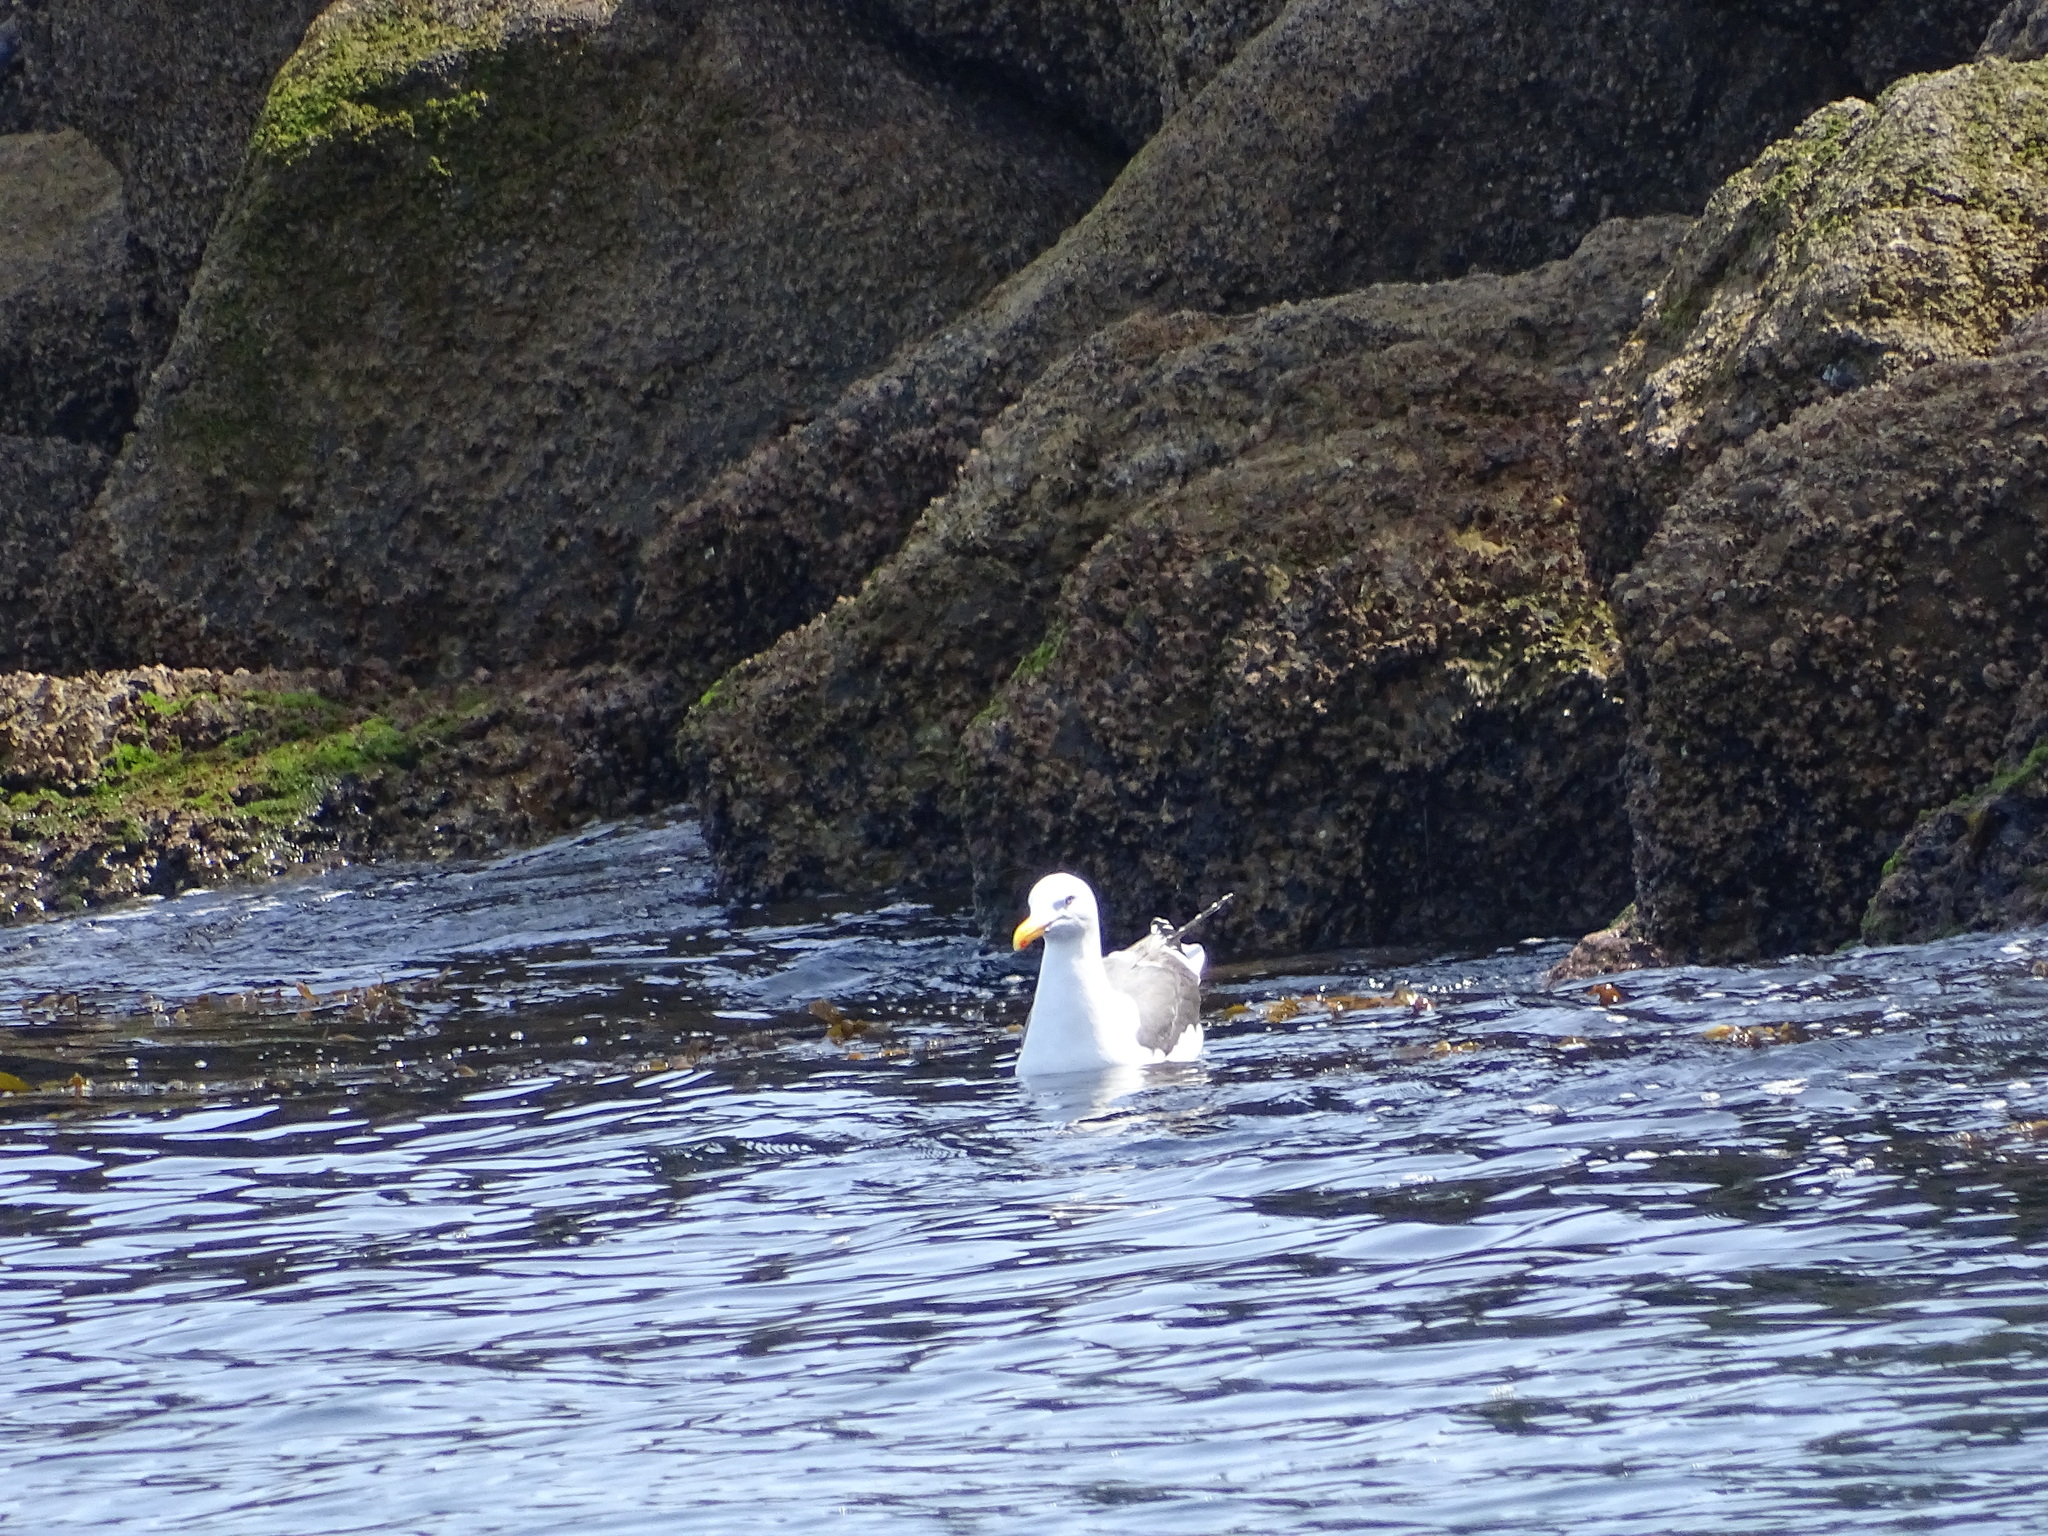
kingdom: Animalia
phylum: Chordata
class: Aves
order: Charadriiformes
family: Laridae
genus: Larus
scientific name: Larus occidentalis
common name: Western gull
